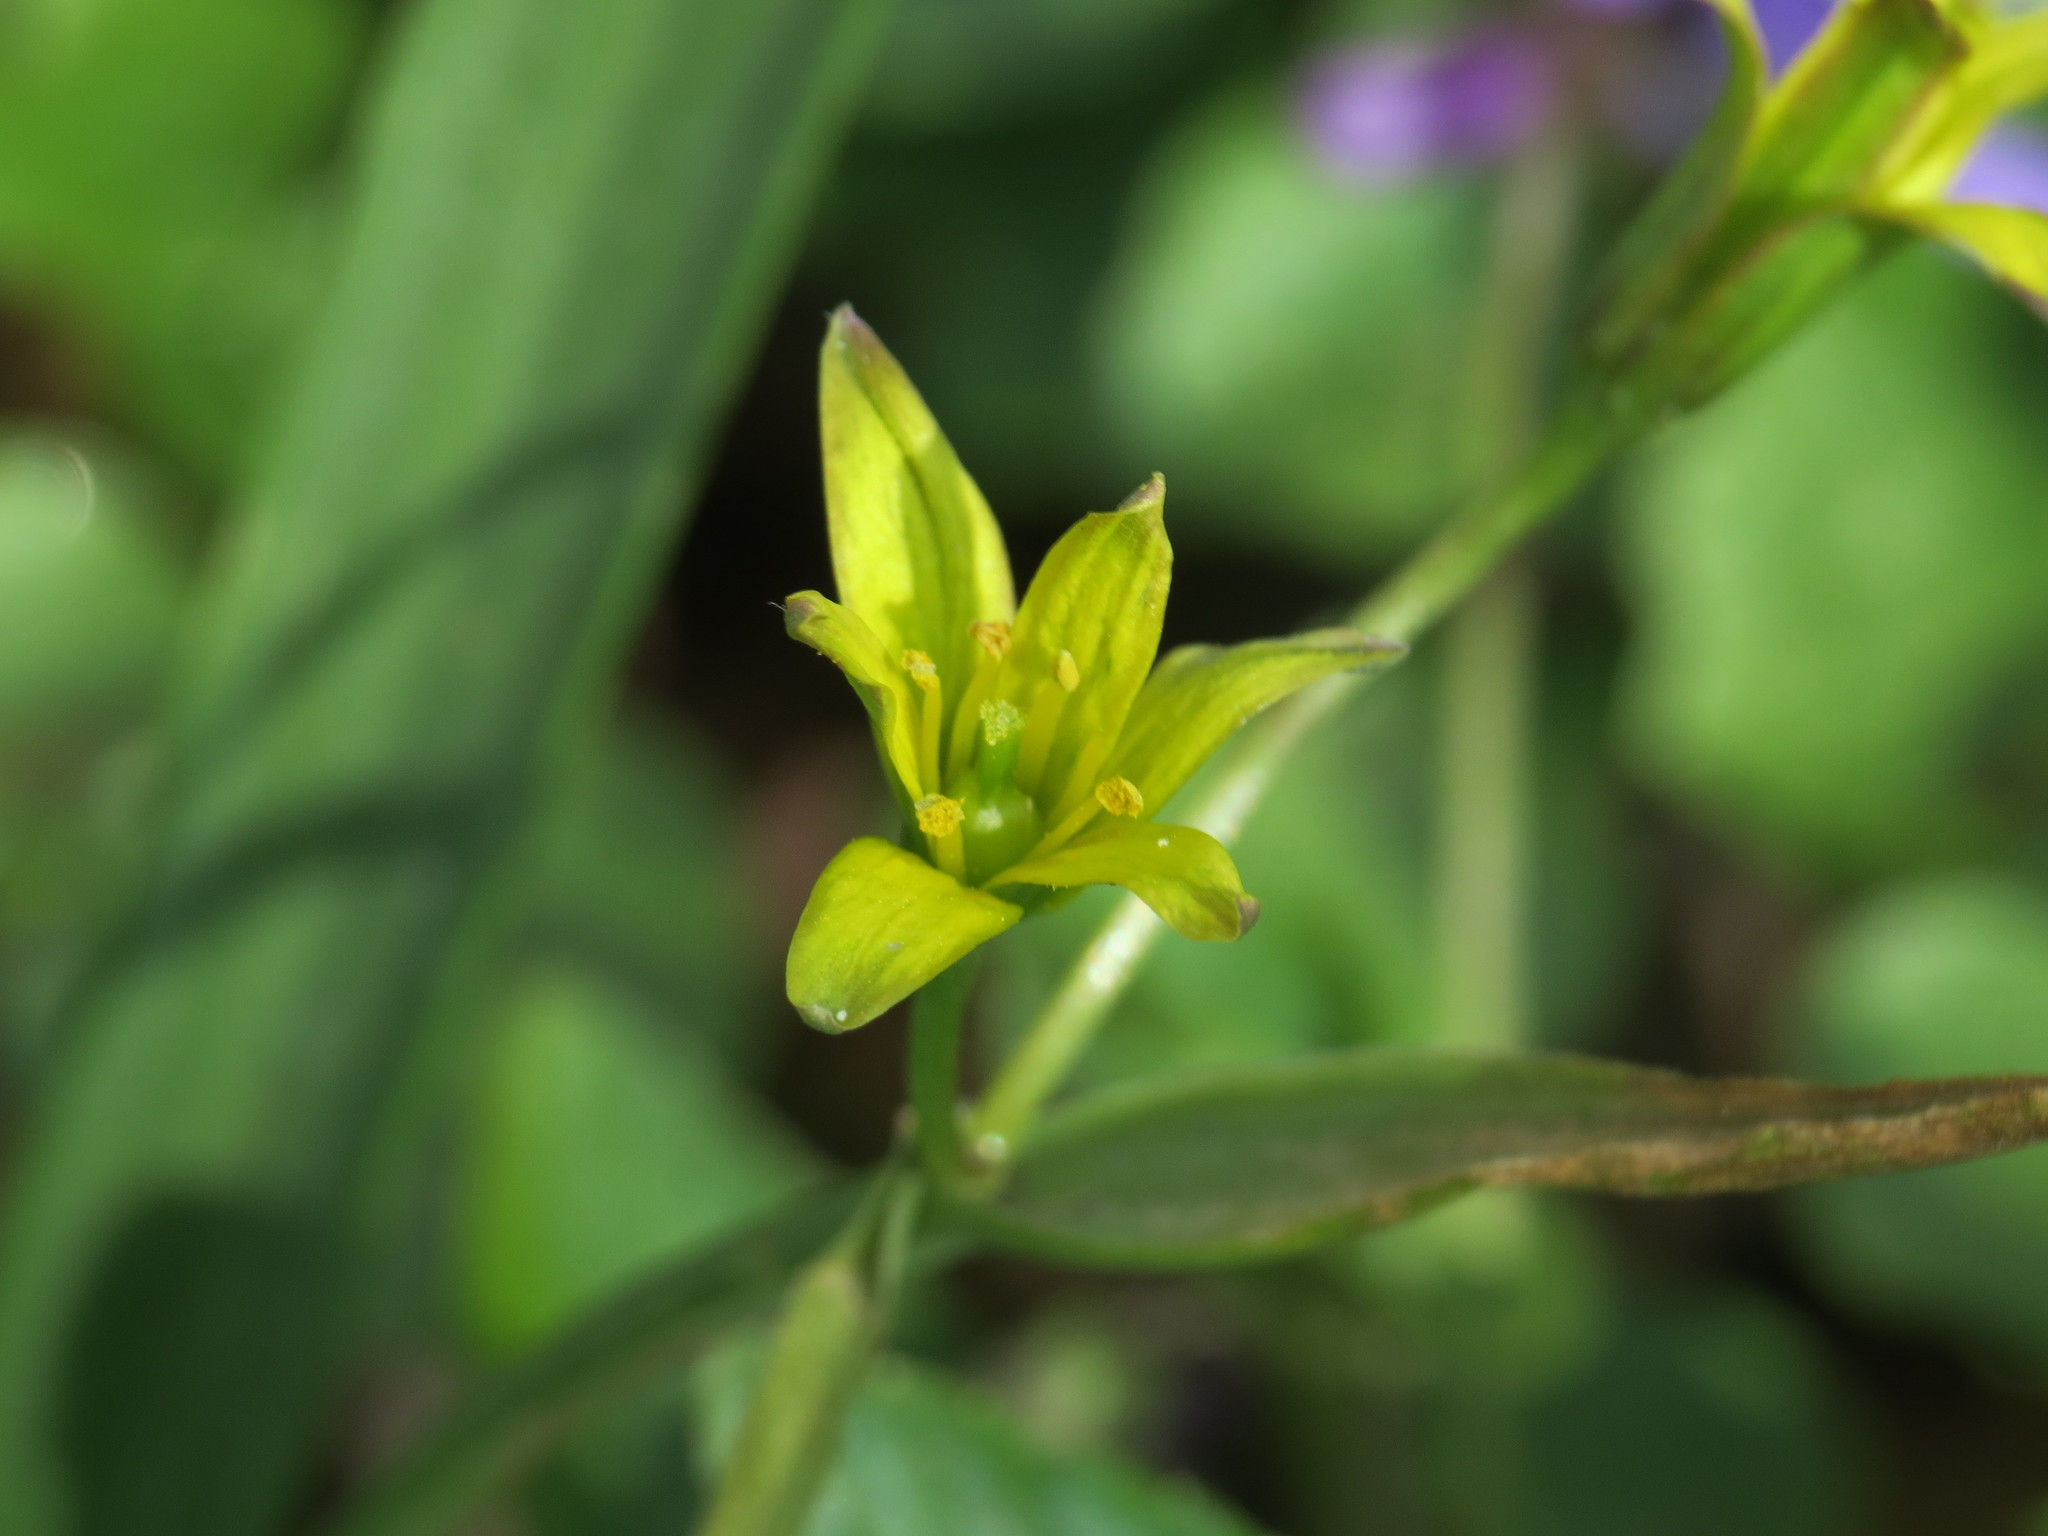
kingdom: Plantae
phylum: Tracheophyta
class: Liliopsida
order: Liliales
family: Liliaceae
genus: Gagea
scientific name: Gagea lutea
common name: Yellow star-of-bethlehem
